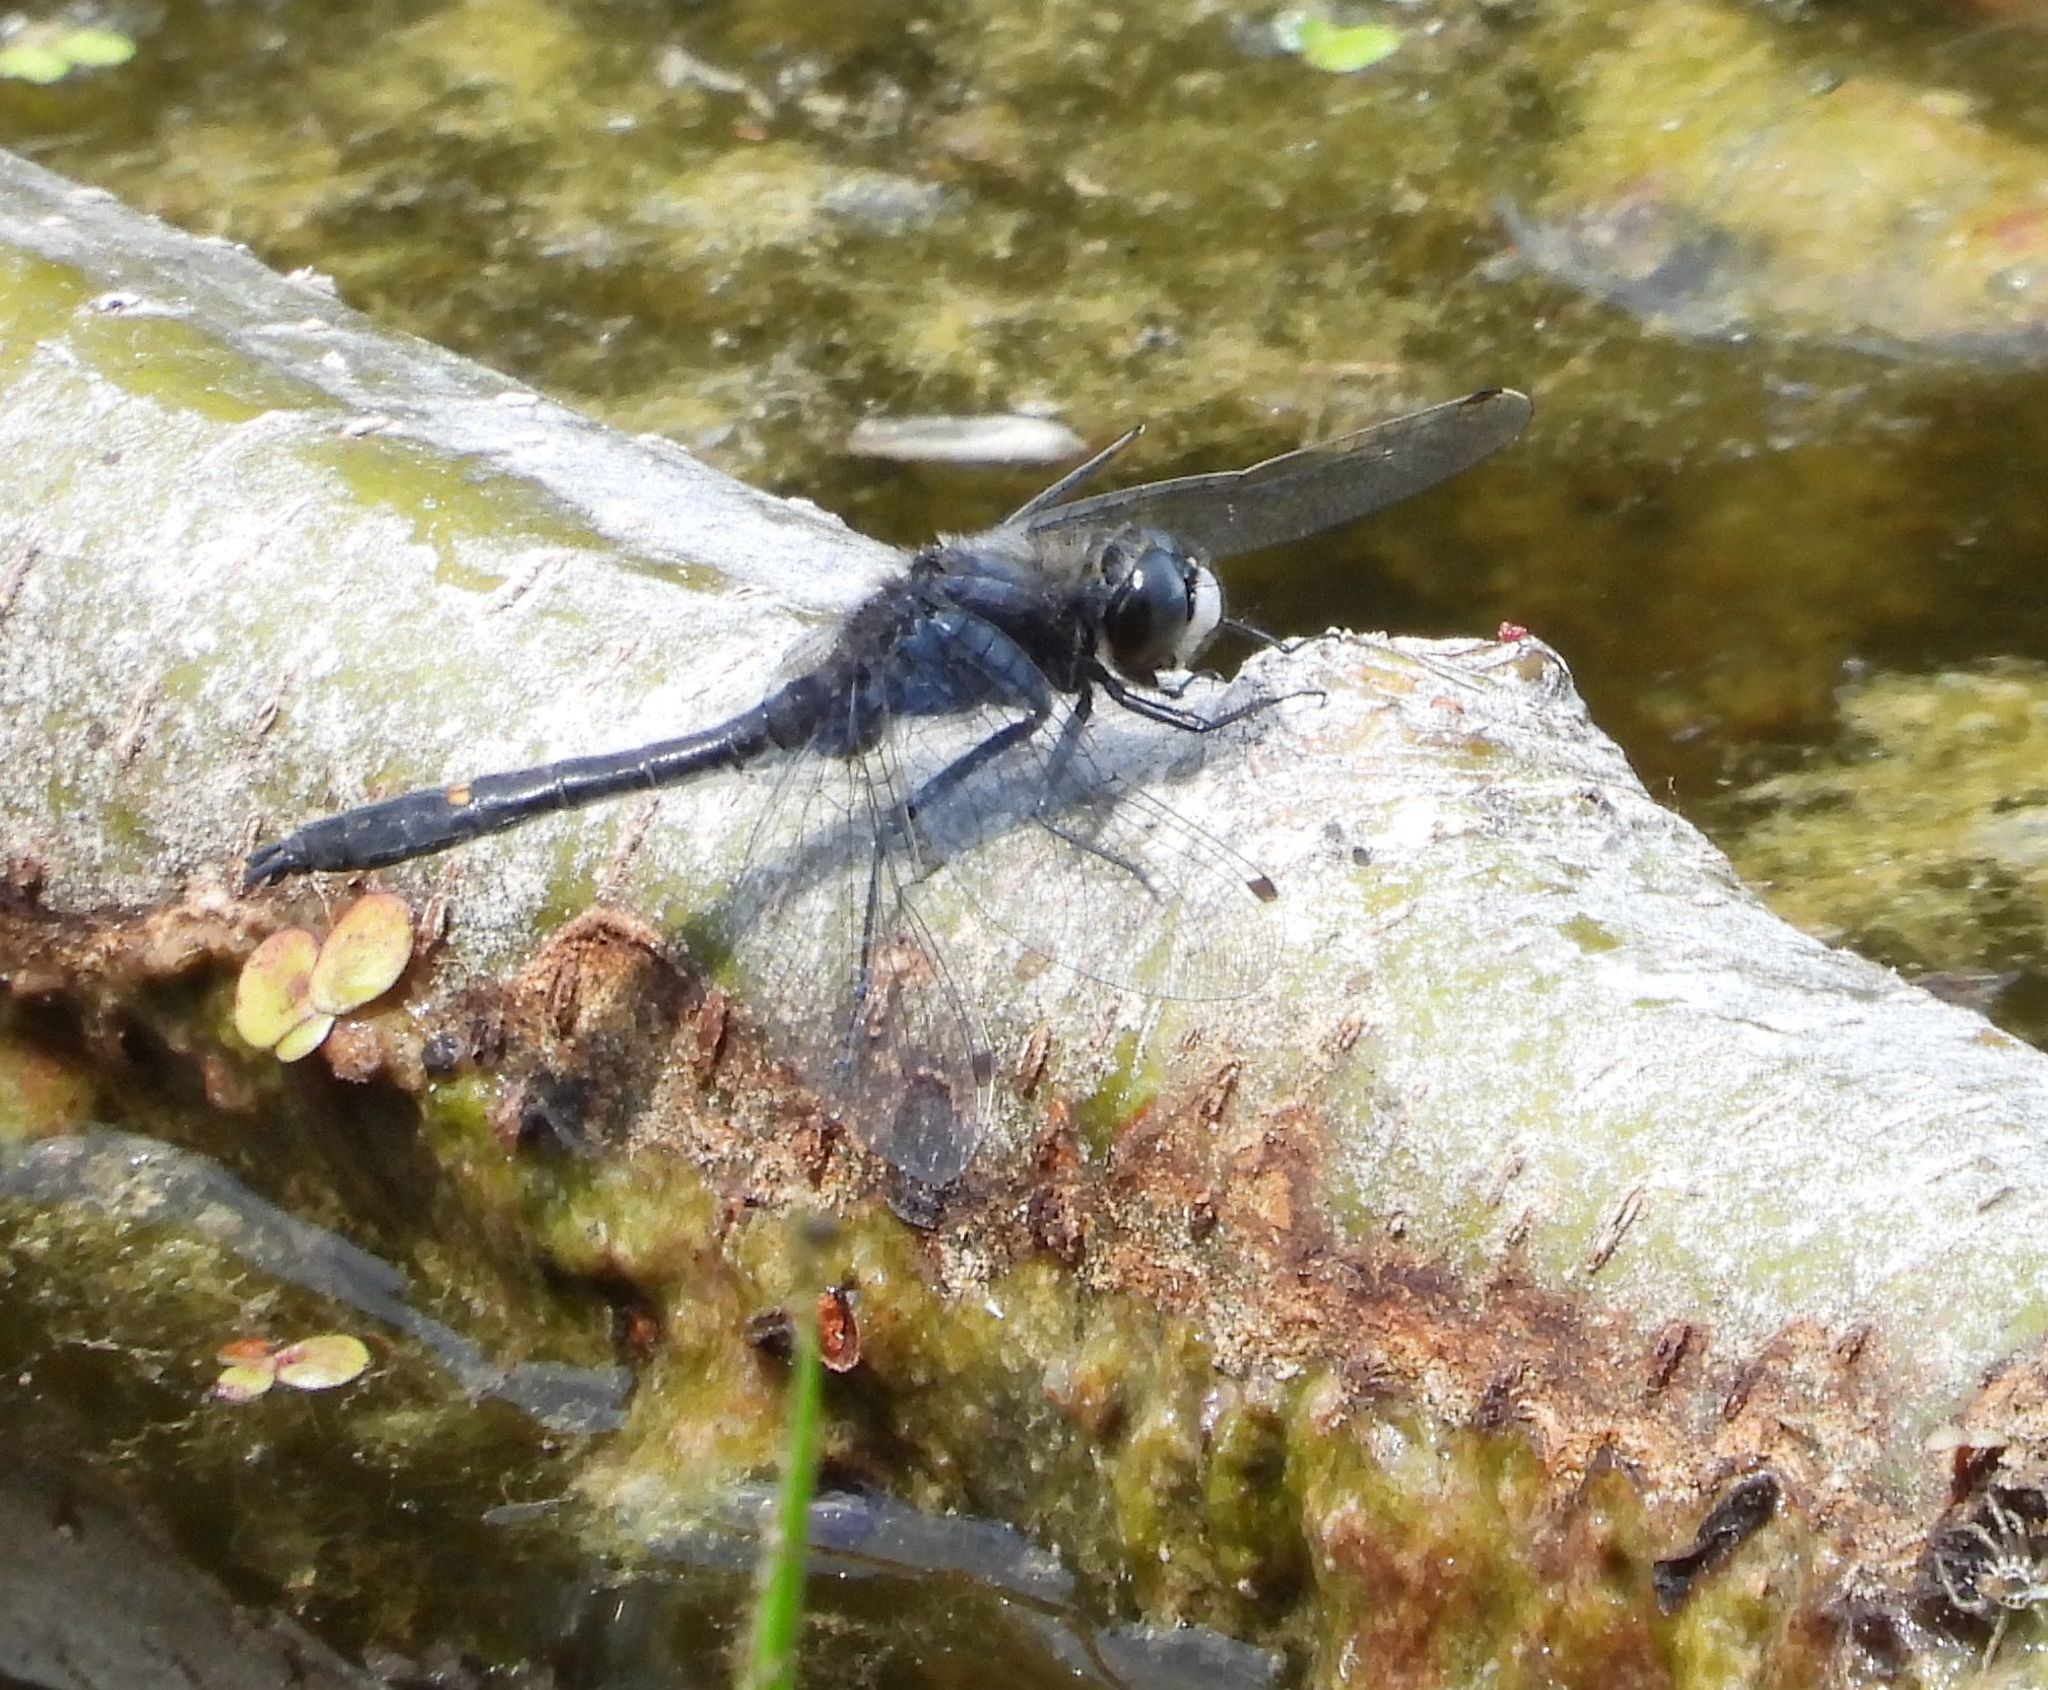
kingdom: Animalia
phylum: Arthropoda
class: Insecta
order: Odonata
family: Libellulidae
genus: Leucorrhinia
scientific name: Leucorrhinia intacta
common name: Dot-tailed whiteface
